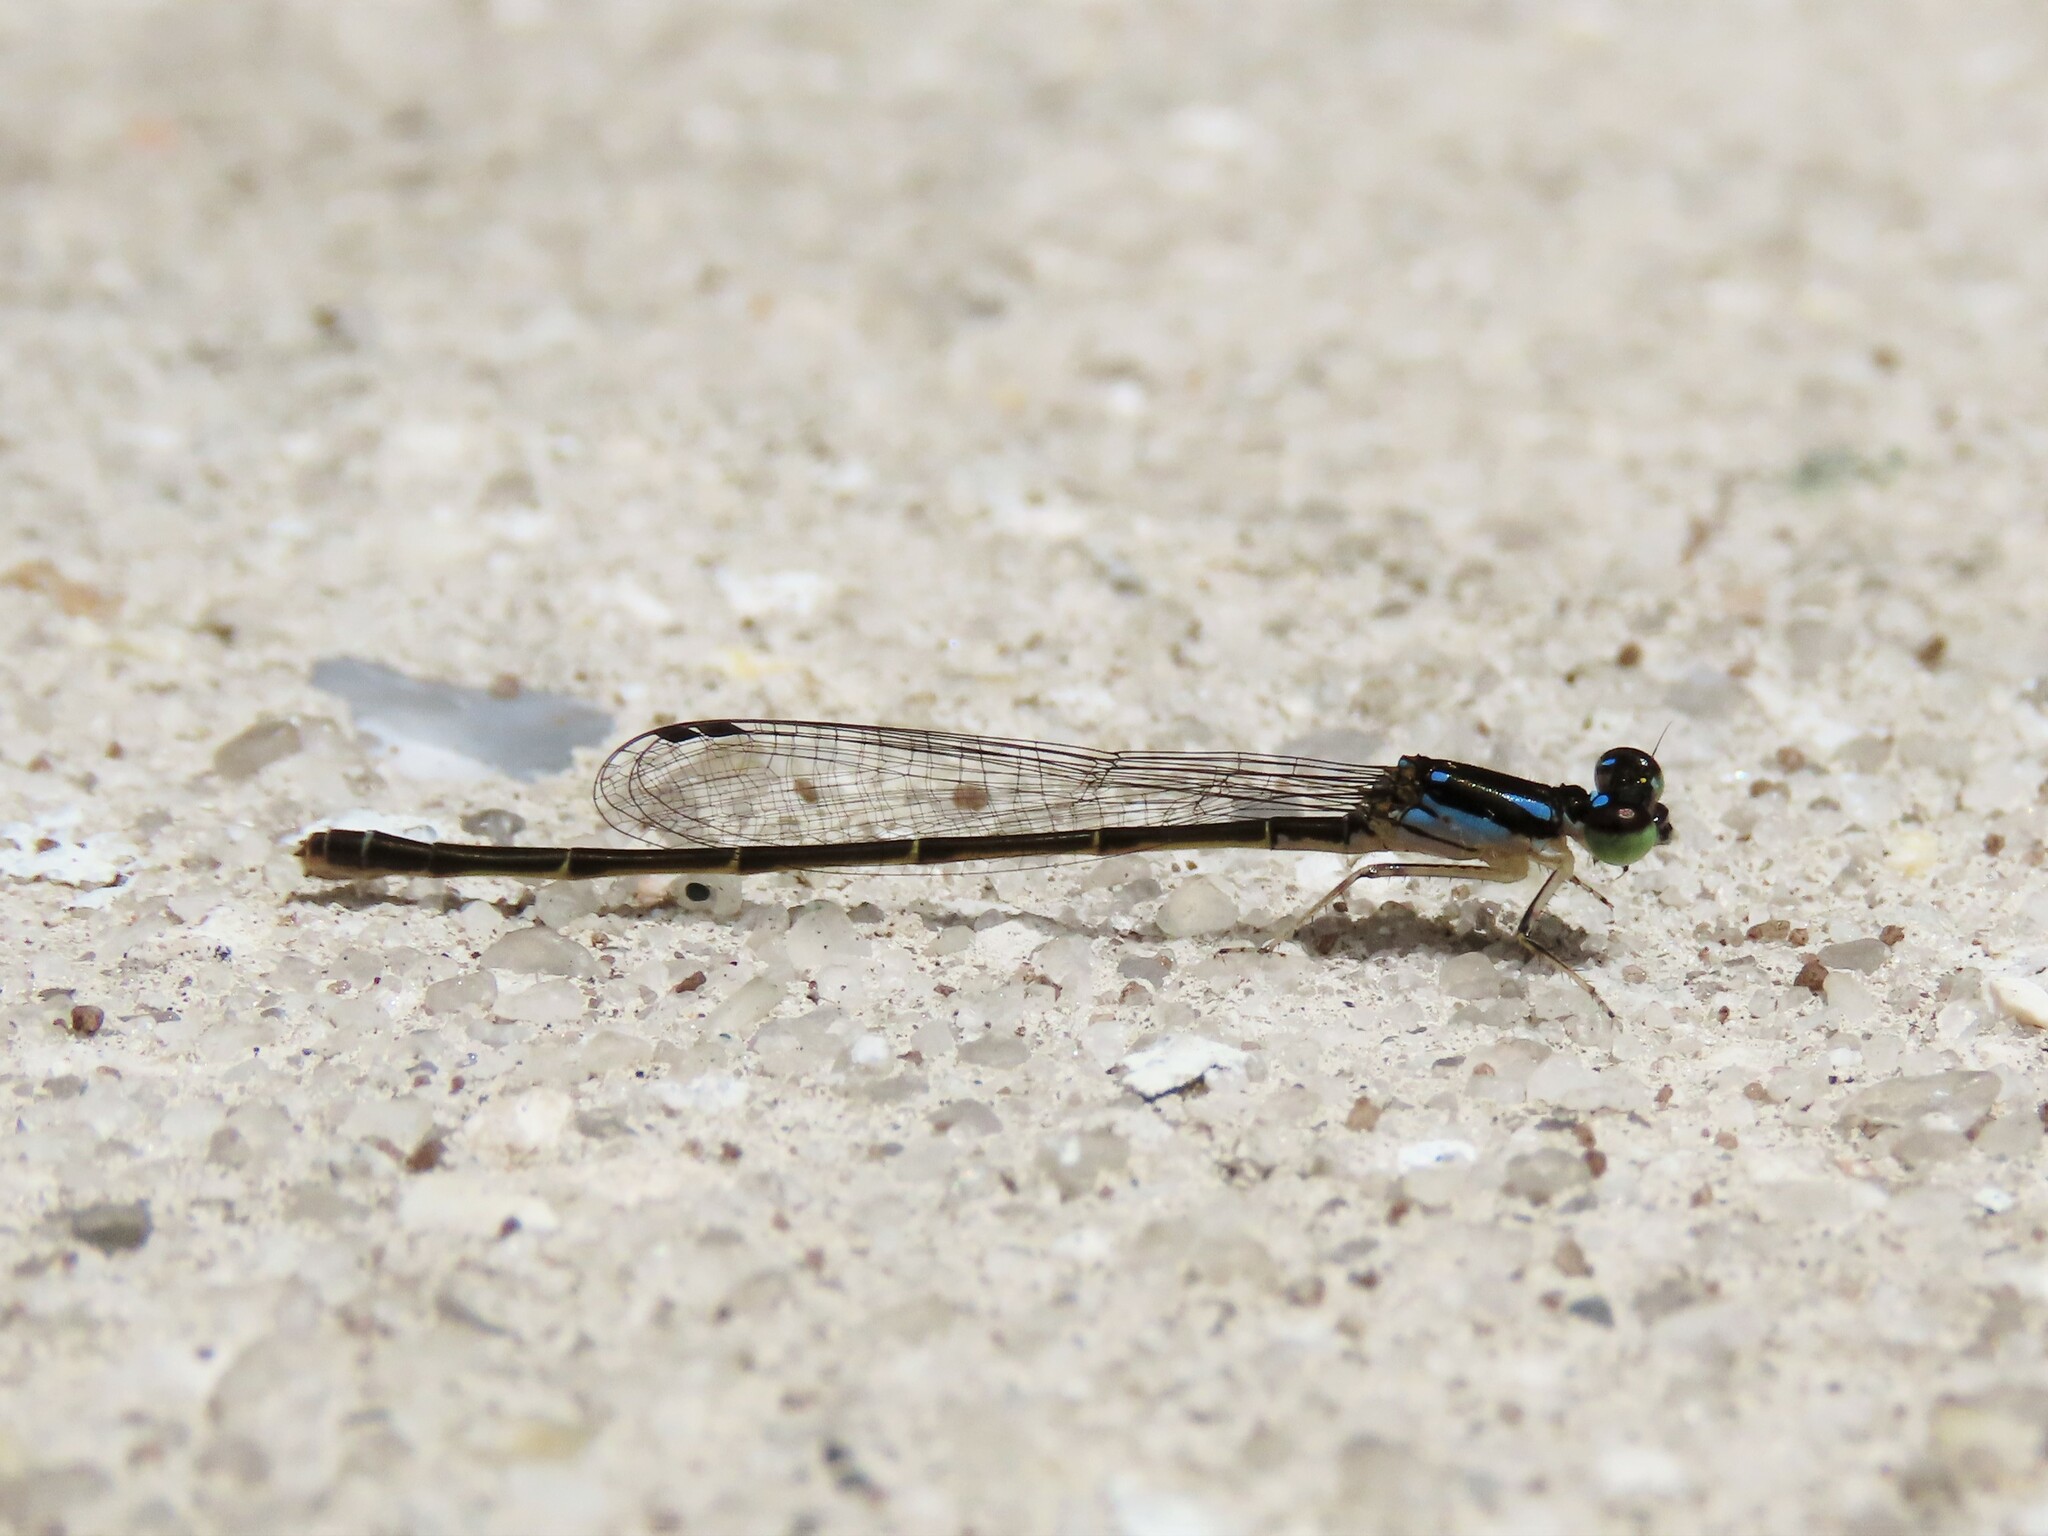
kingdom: Animalia
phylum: Arthropoda
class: Insecta
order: Odonata
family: Coenagrionidae
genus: Ischnura
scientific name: Ischnura posita
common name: Fragile forktail
